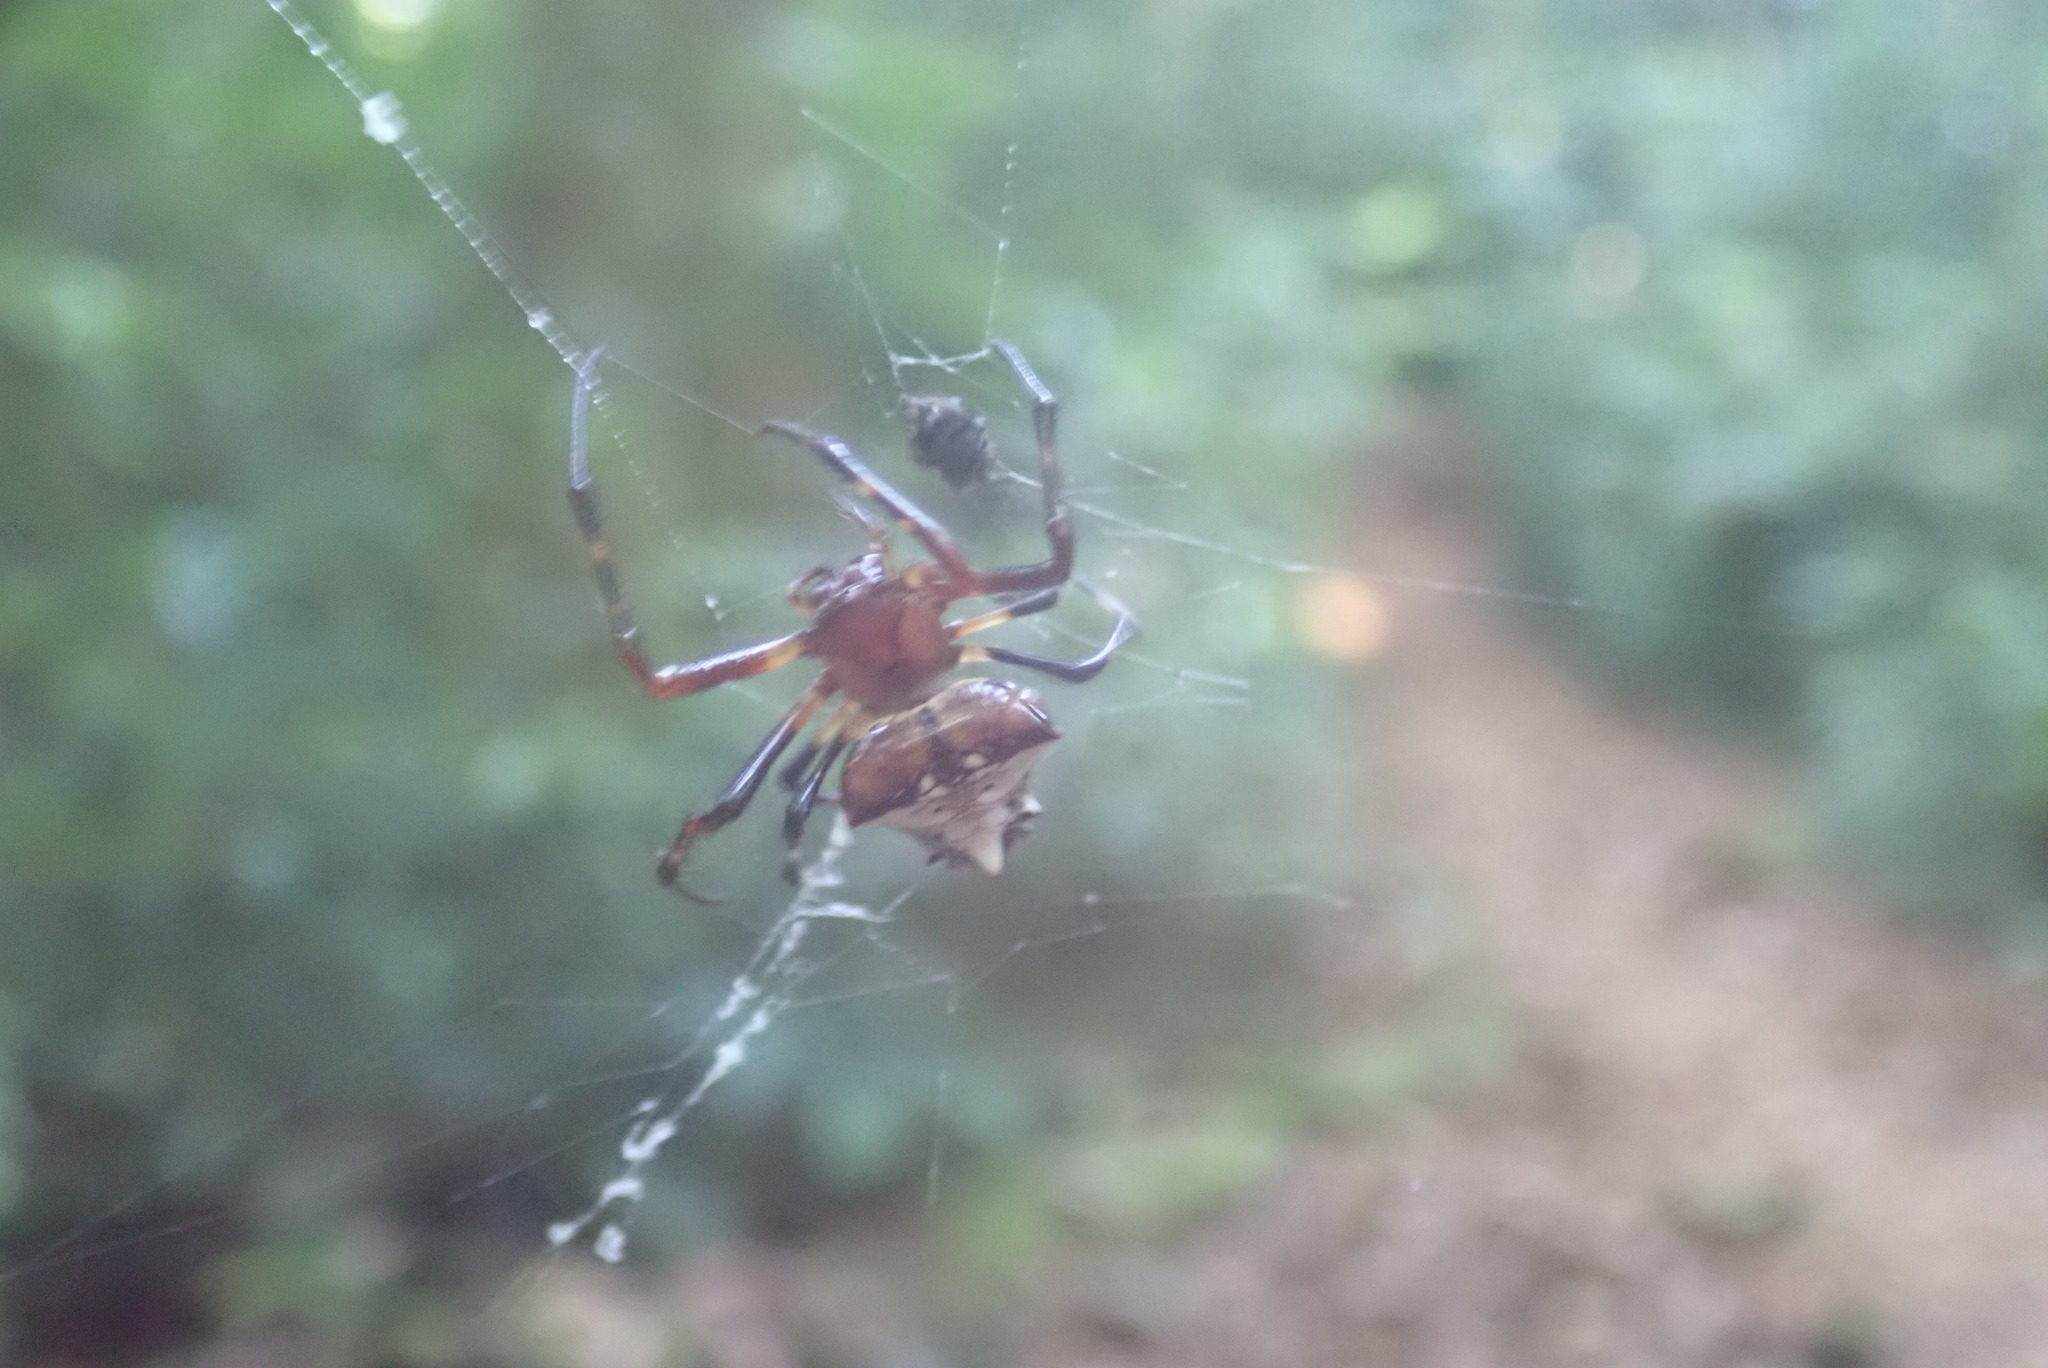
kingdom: Animalia
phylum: Arthropoda
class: Arachnida
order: Araneae
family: Araneidae
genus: Verrucosa
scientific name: Verrucosa arenata
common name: Orb weavers
